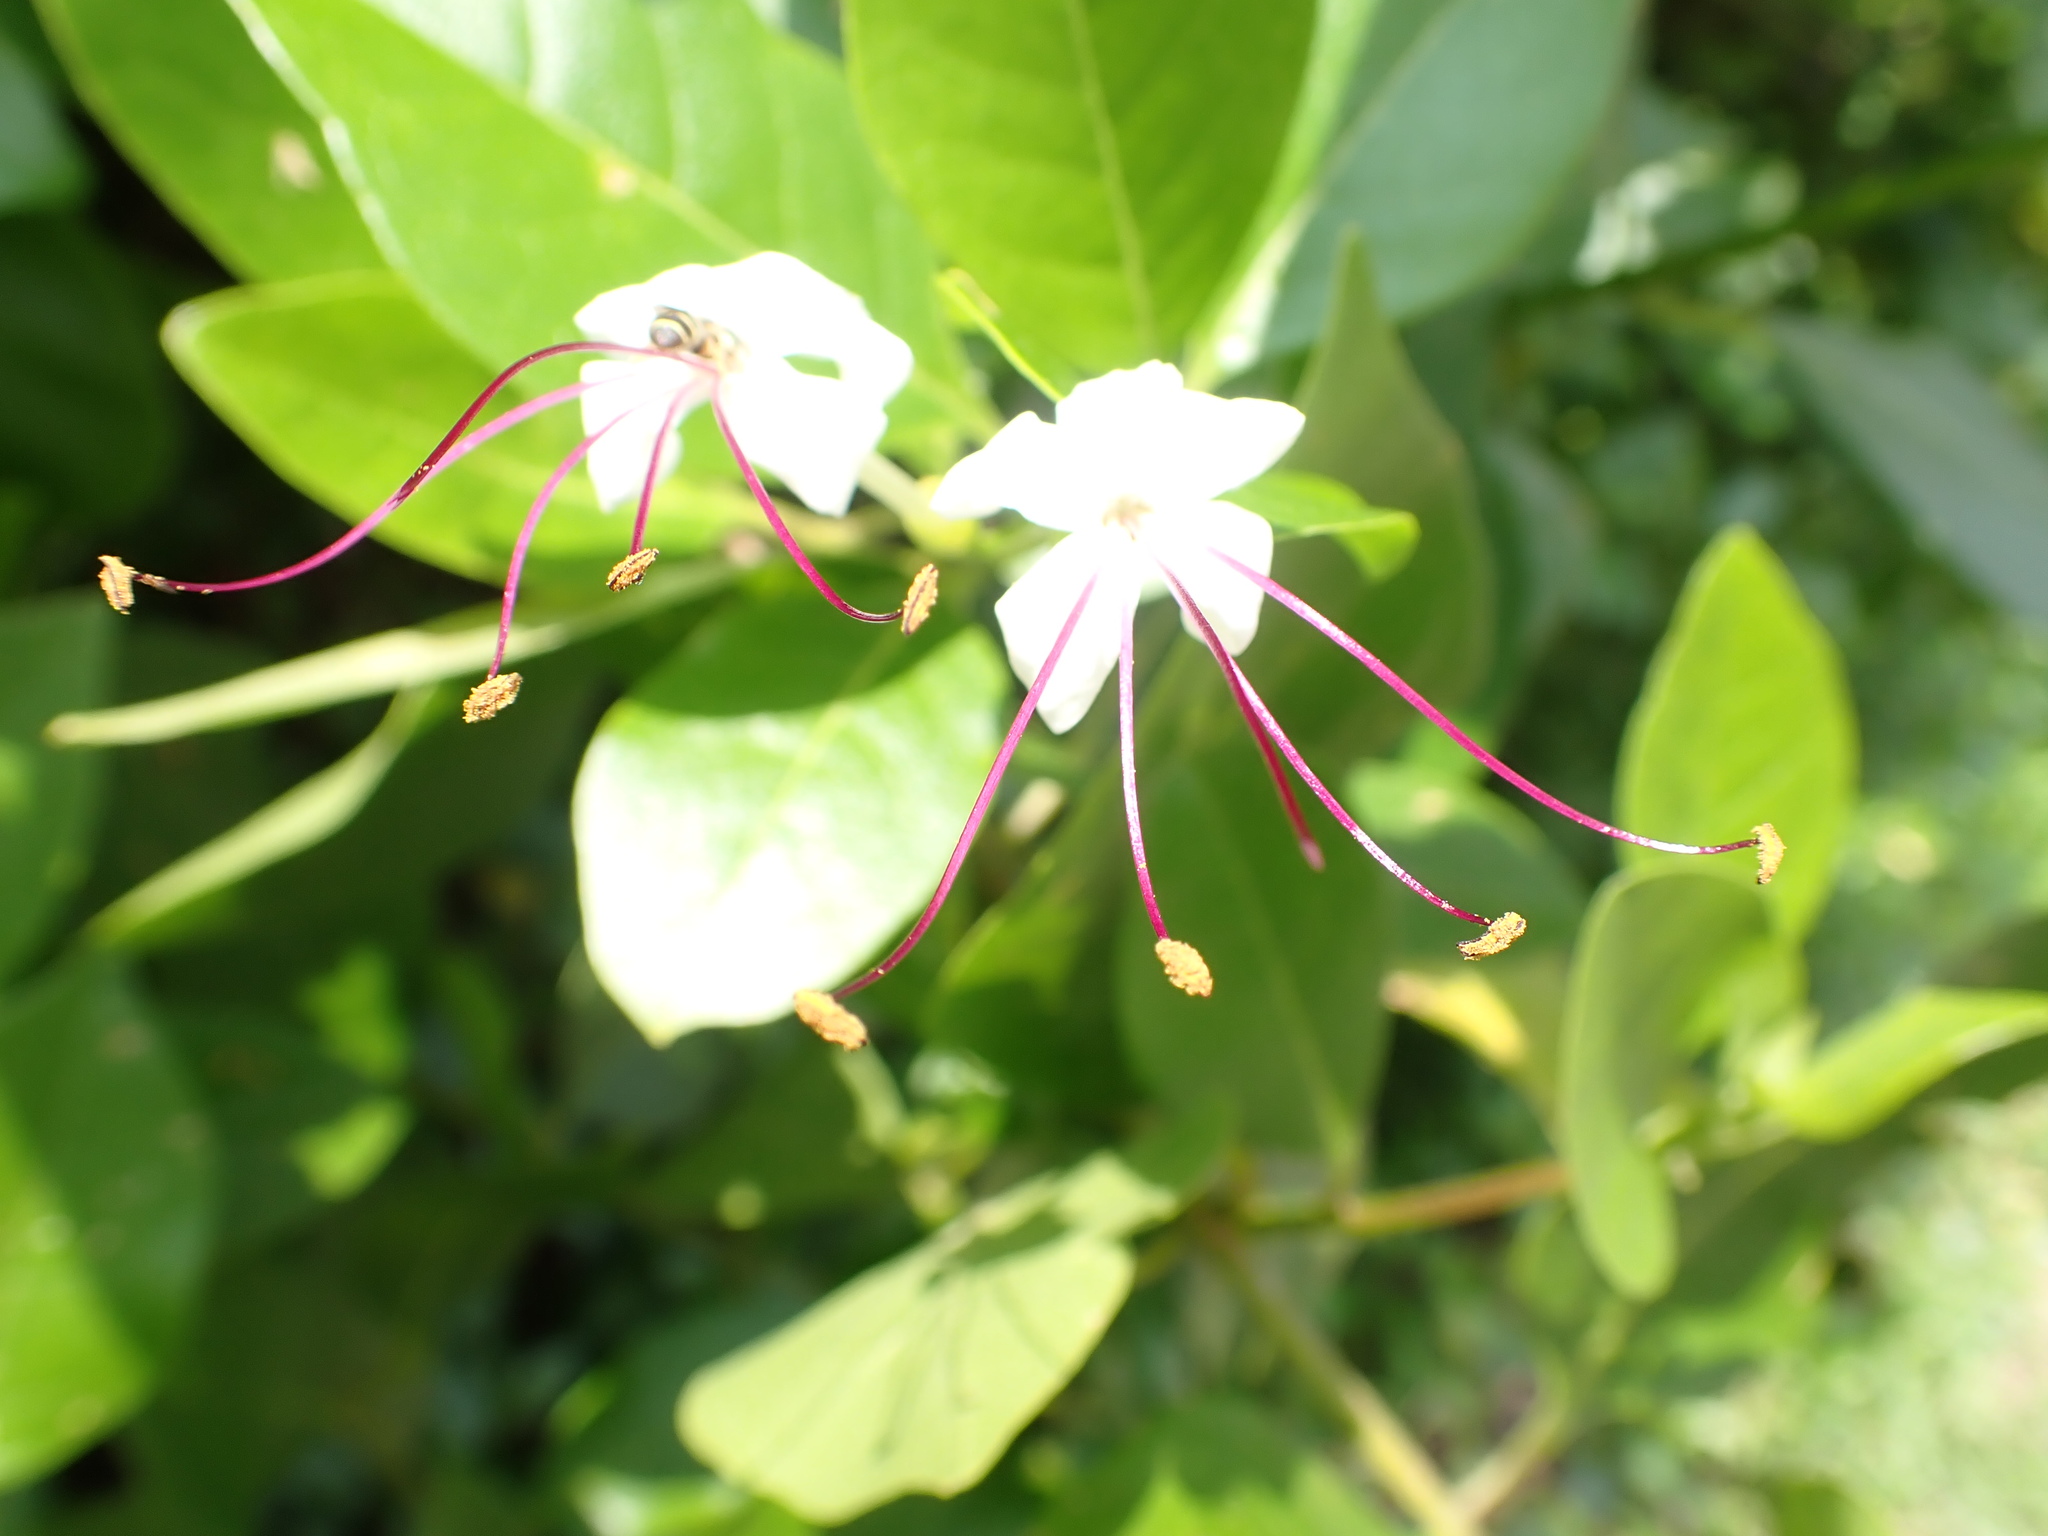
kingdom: Plantae
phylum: Tracheophyta
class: Magnoliopsida
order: Lamiales
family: Lamiaceae
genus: Volkameria
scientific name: Volkameria inermis
